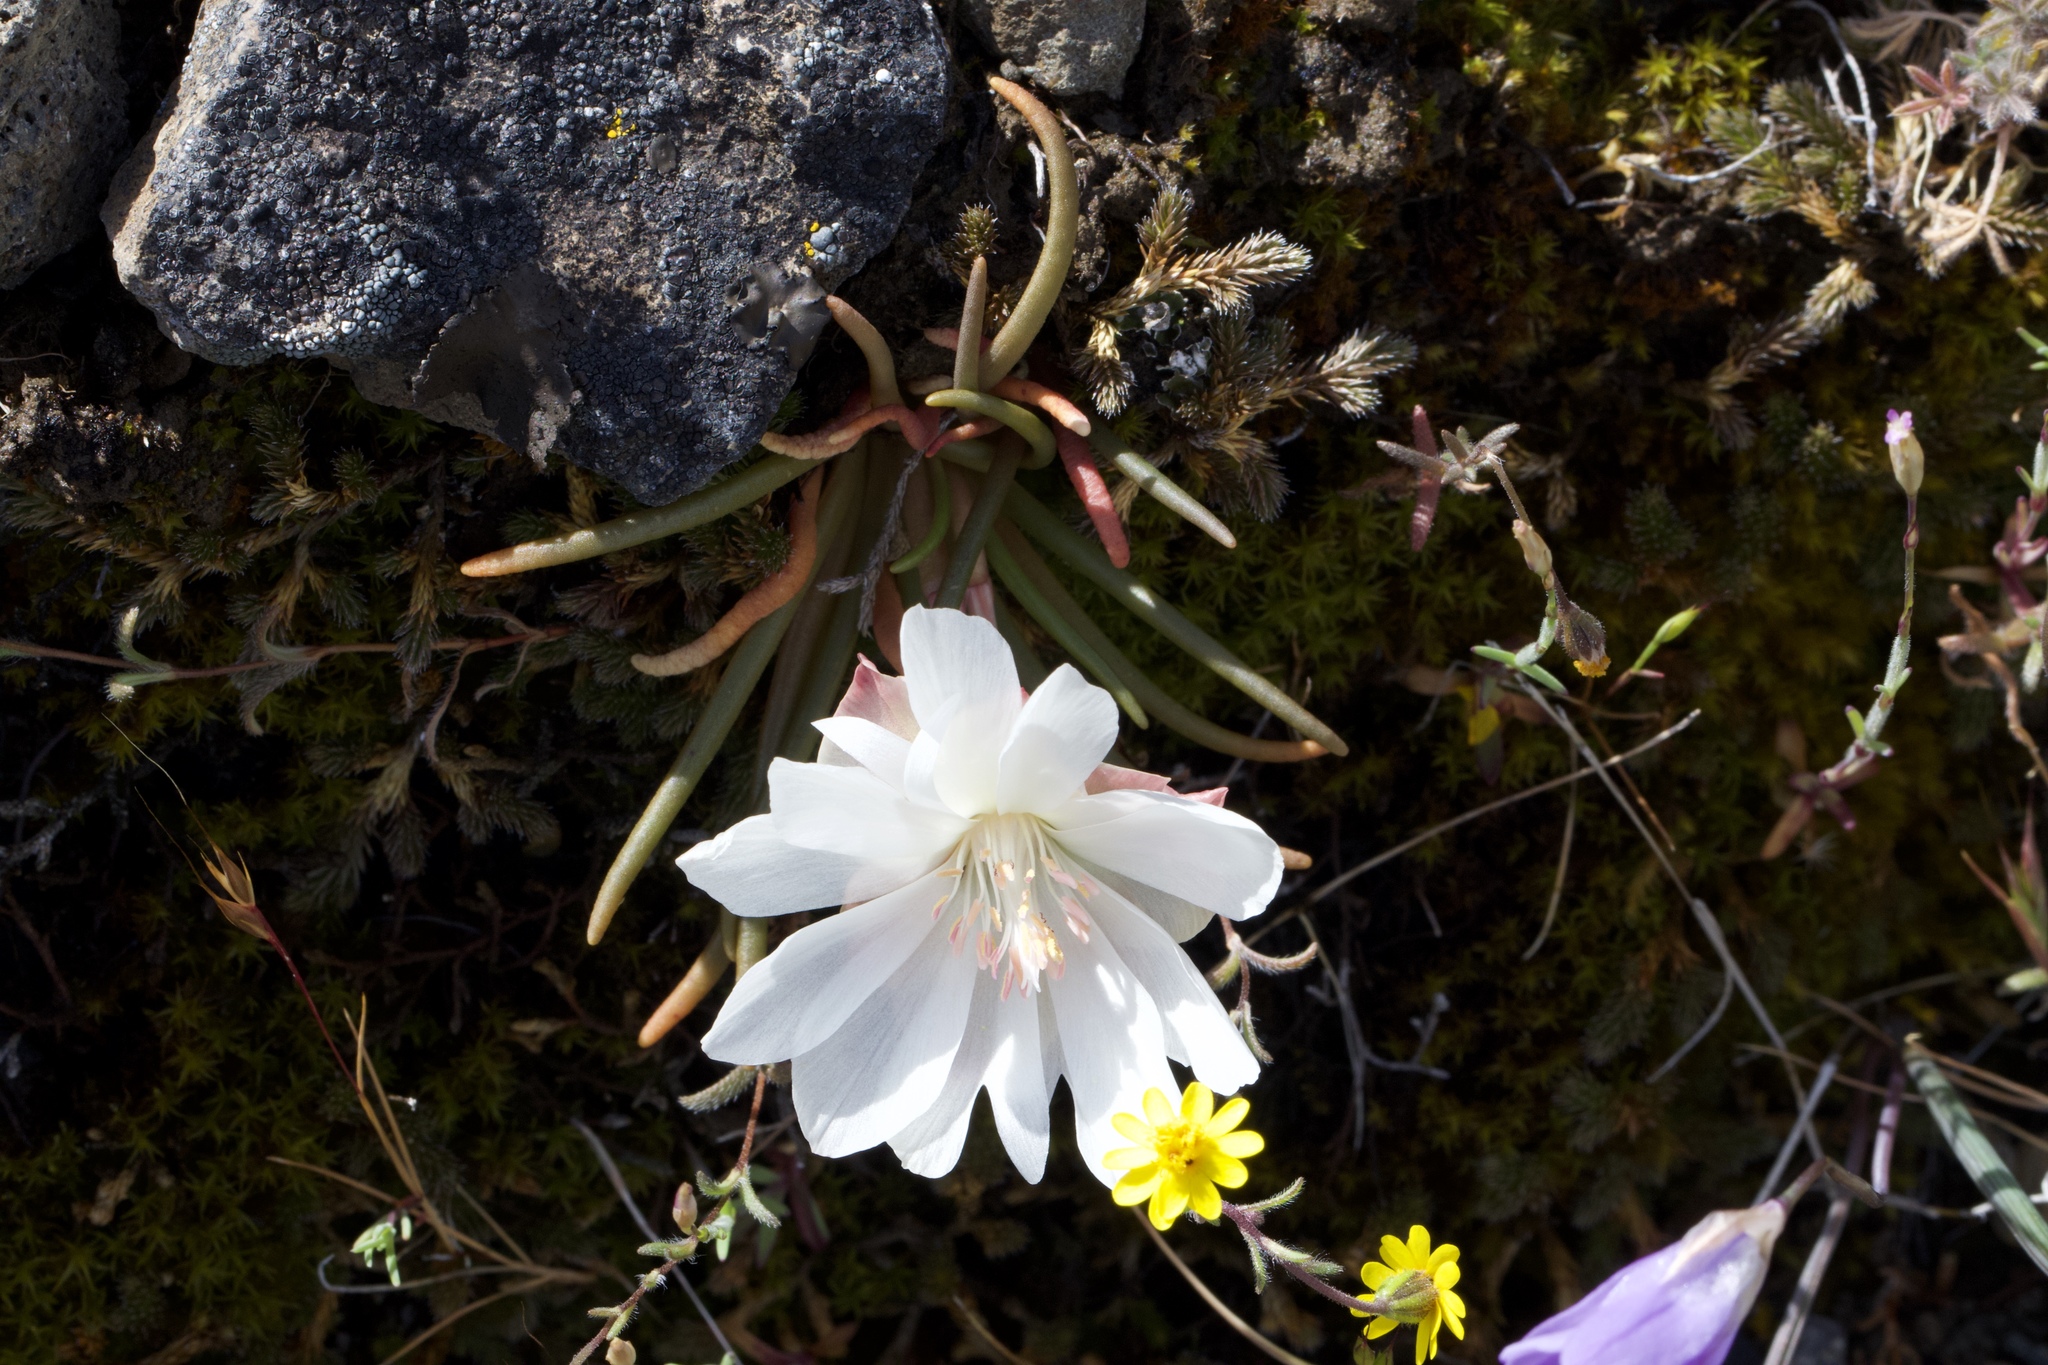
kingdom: Plantae
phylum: Tracheophyta
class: Magnoliopsida
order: Caryophyllales
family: Montiaceae
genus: Lewisia
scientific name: Lewisia rediviva
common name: Bitter-root
